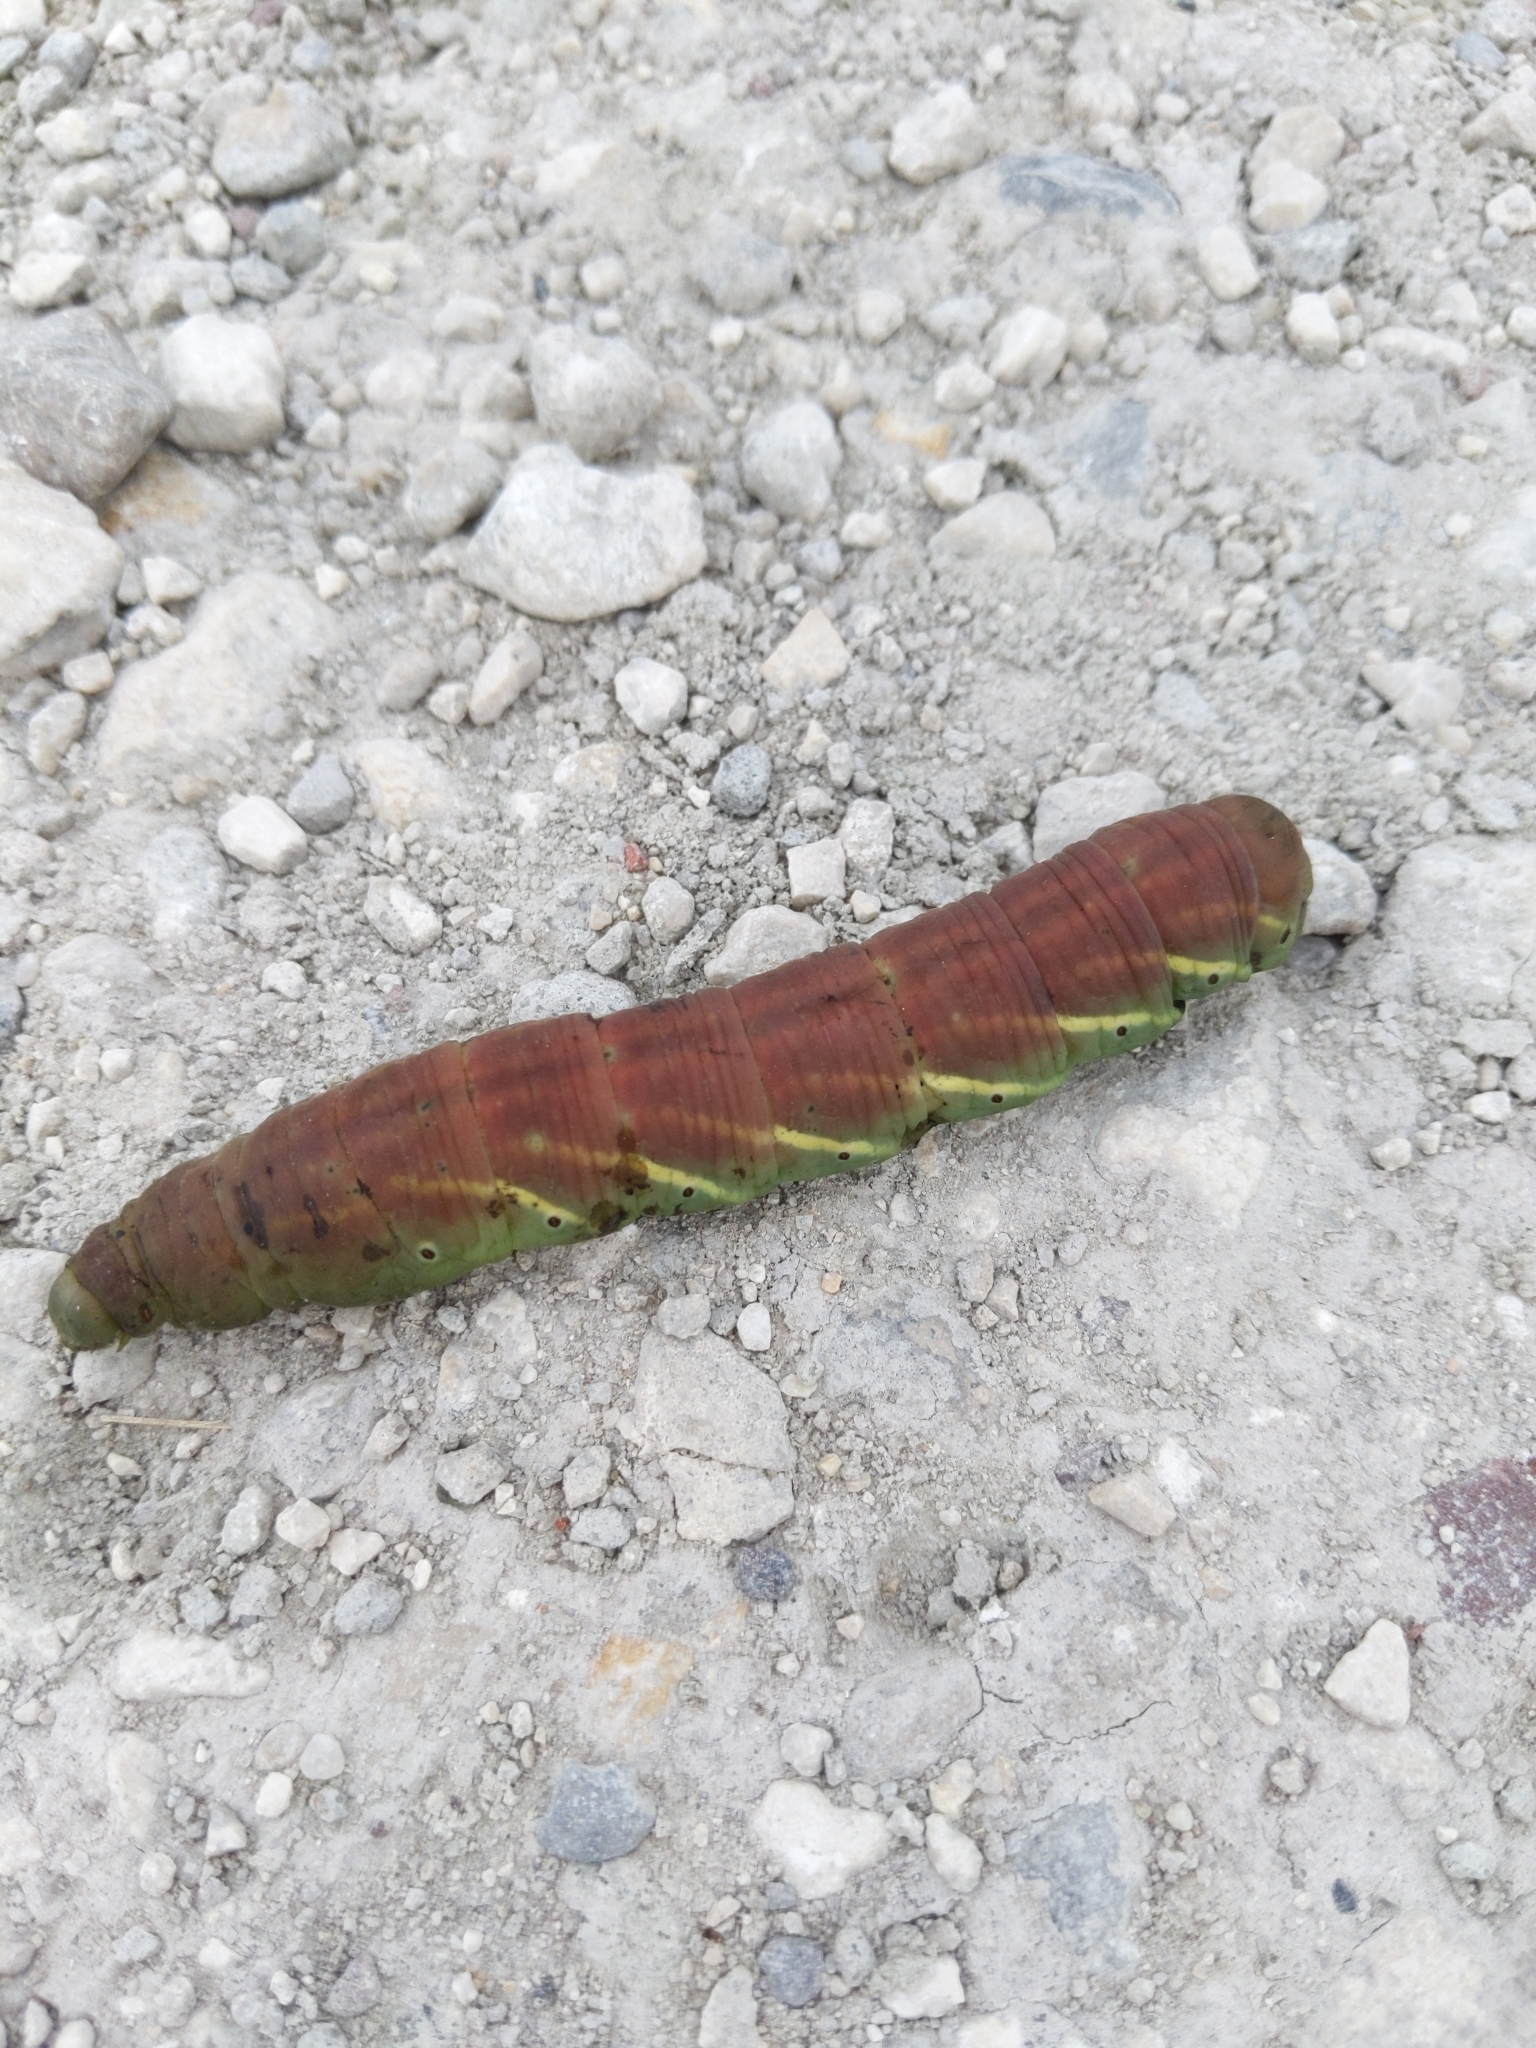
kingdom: Animalia
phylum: Arthropoda
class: Insecta
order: Lepidoptera
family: Sphingidae
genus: Eumorpha
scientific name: Eumorpha fasciatus
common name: Banded sphinx
